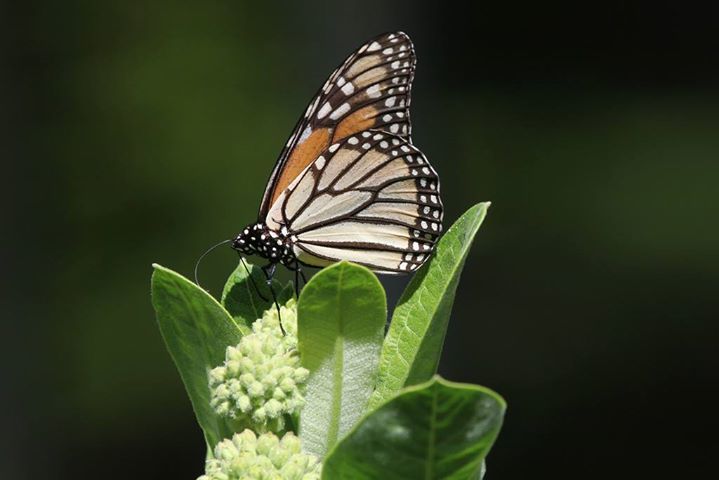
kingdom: Animalia
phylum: Arthropoda
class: Insecta
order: Lepidoptera
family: Nymphalidae
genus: Danaus
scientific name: Danaus plexippus
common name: Monarch
